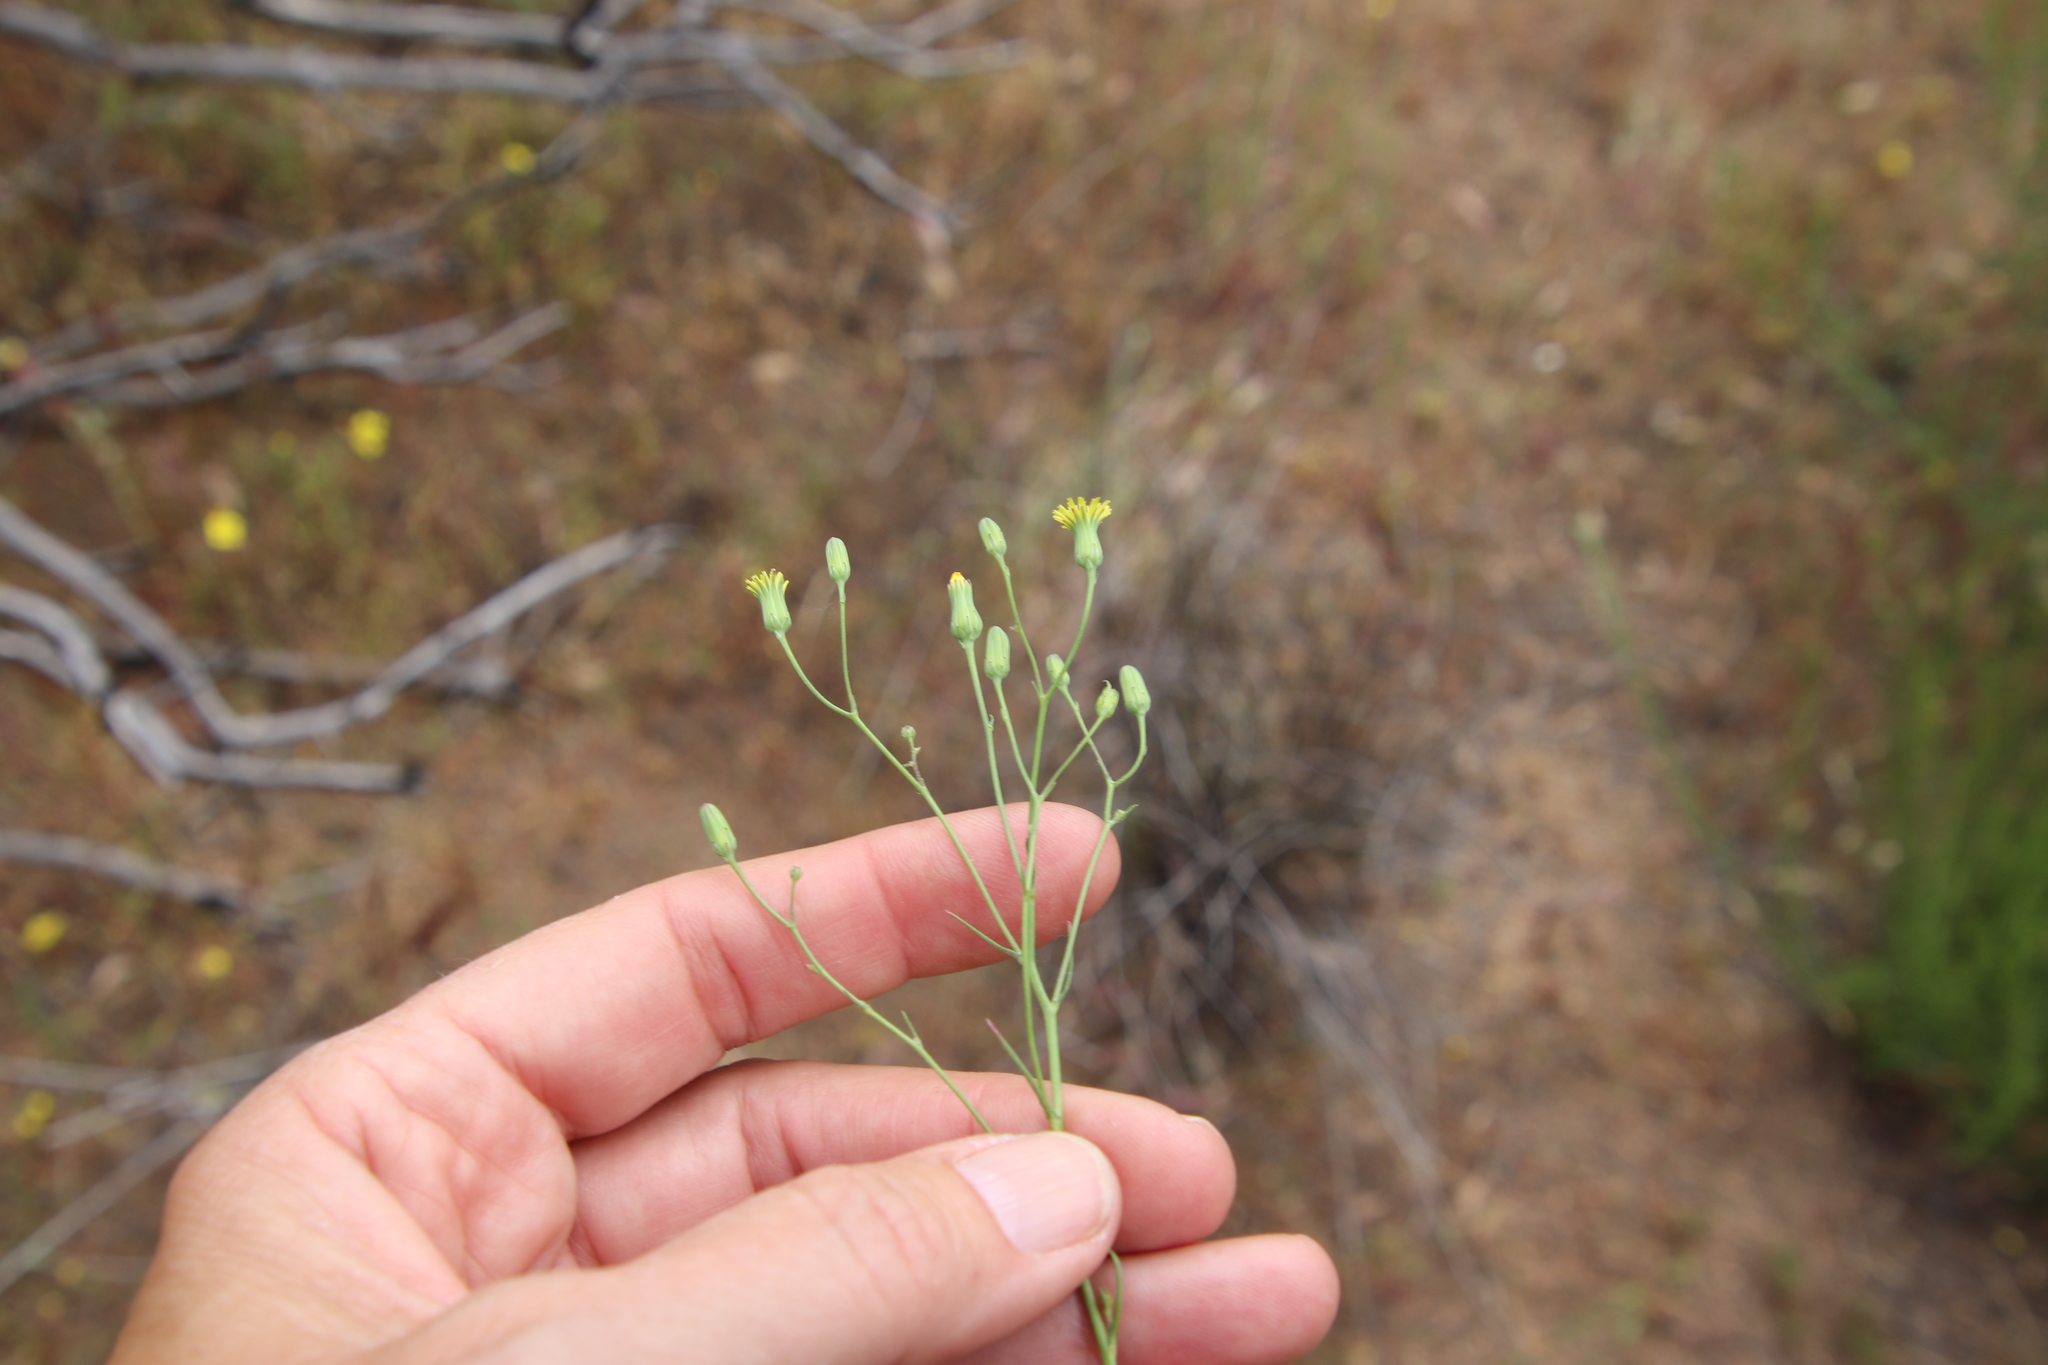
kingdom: Plantae
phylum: Tracheophyta
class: Magnoliopsida
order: Asterales
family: Asteraceae
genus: Malacothrix
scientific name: Malacothrix clevelandii
